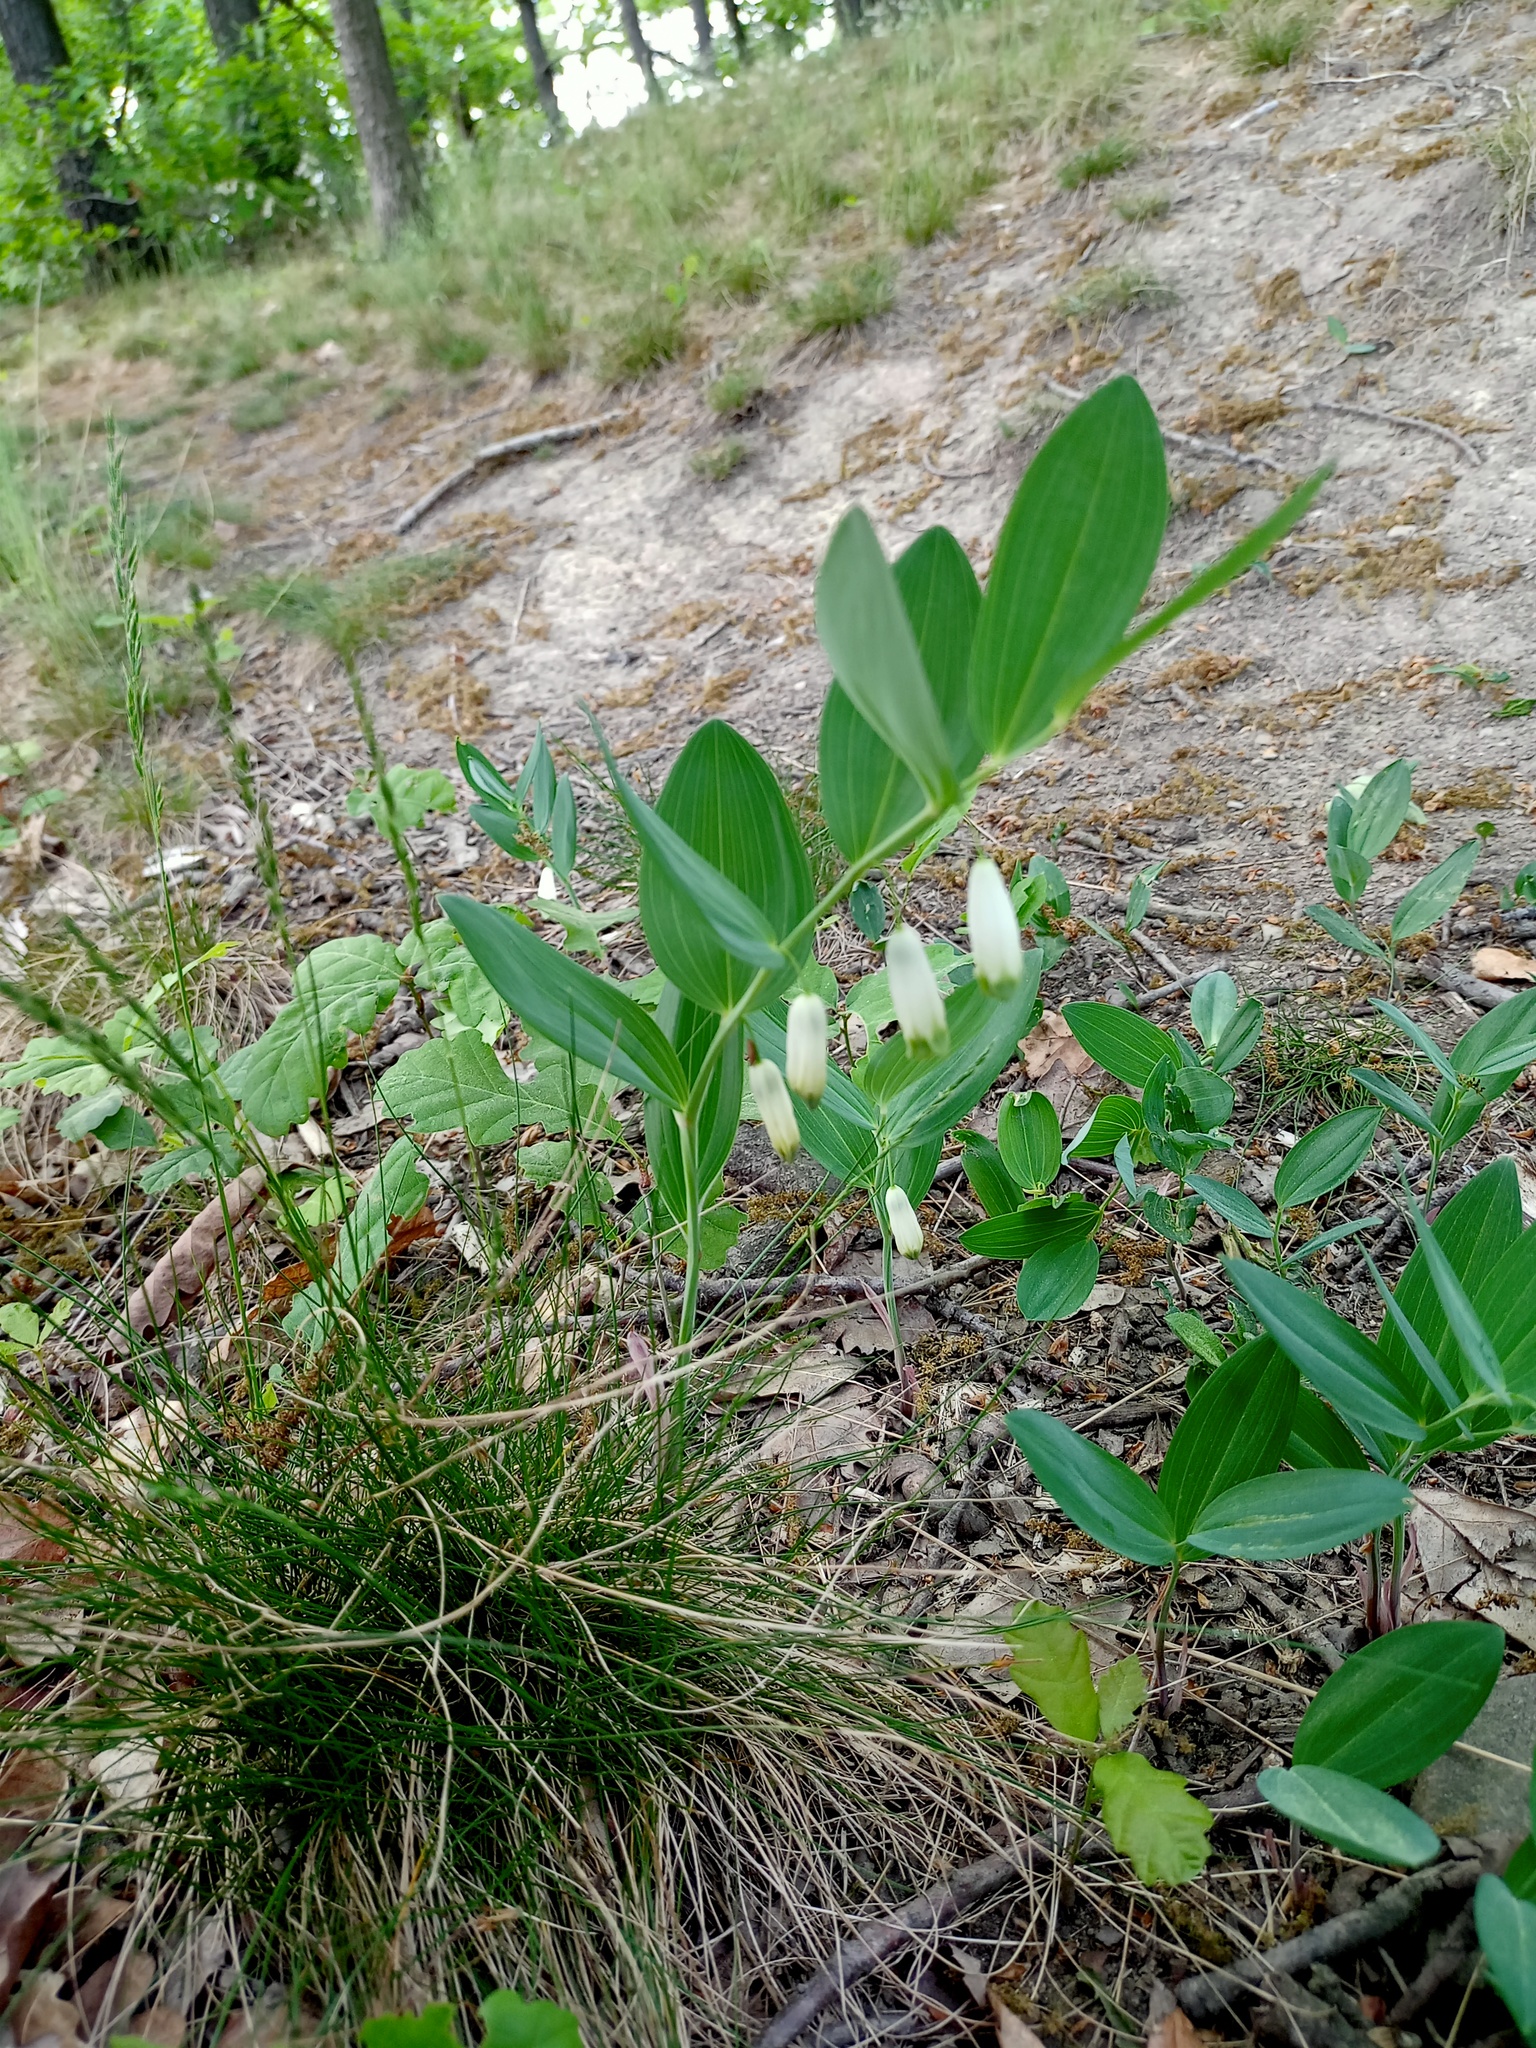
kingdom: Plantae
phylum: Tracheophyta
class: Liliopsida
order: Asparagales
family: Asparagaceae
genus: Polygonatum
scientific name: Polygonatum odoratum
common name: Angular solomon's-seal
